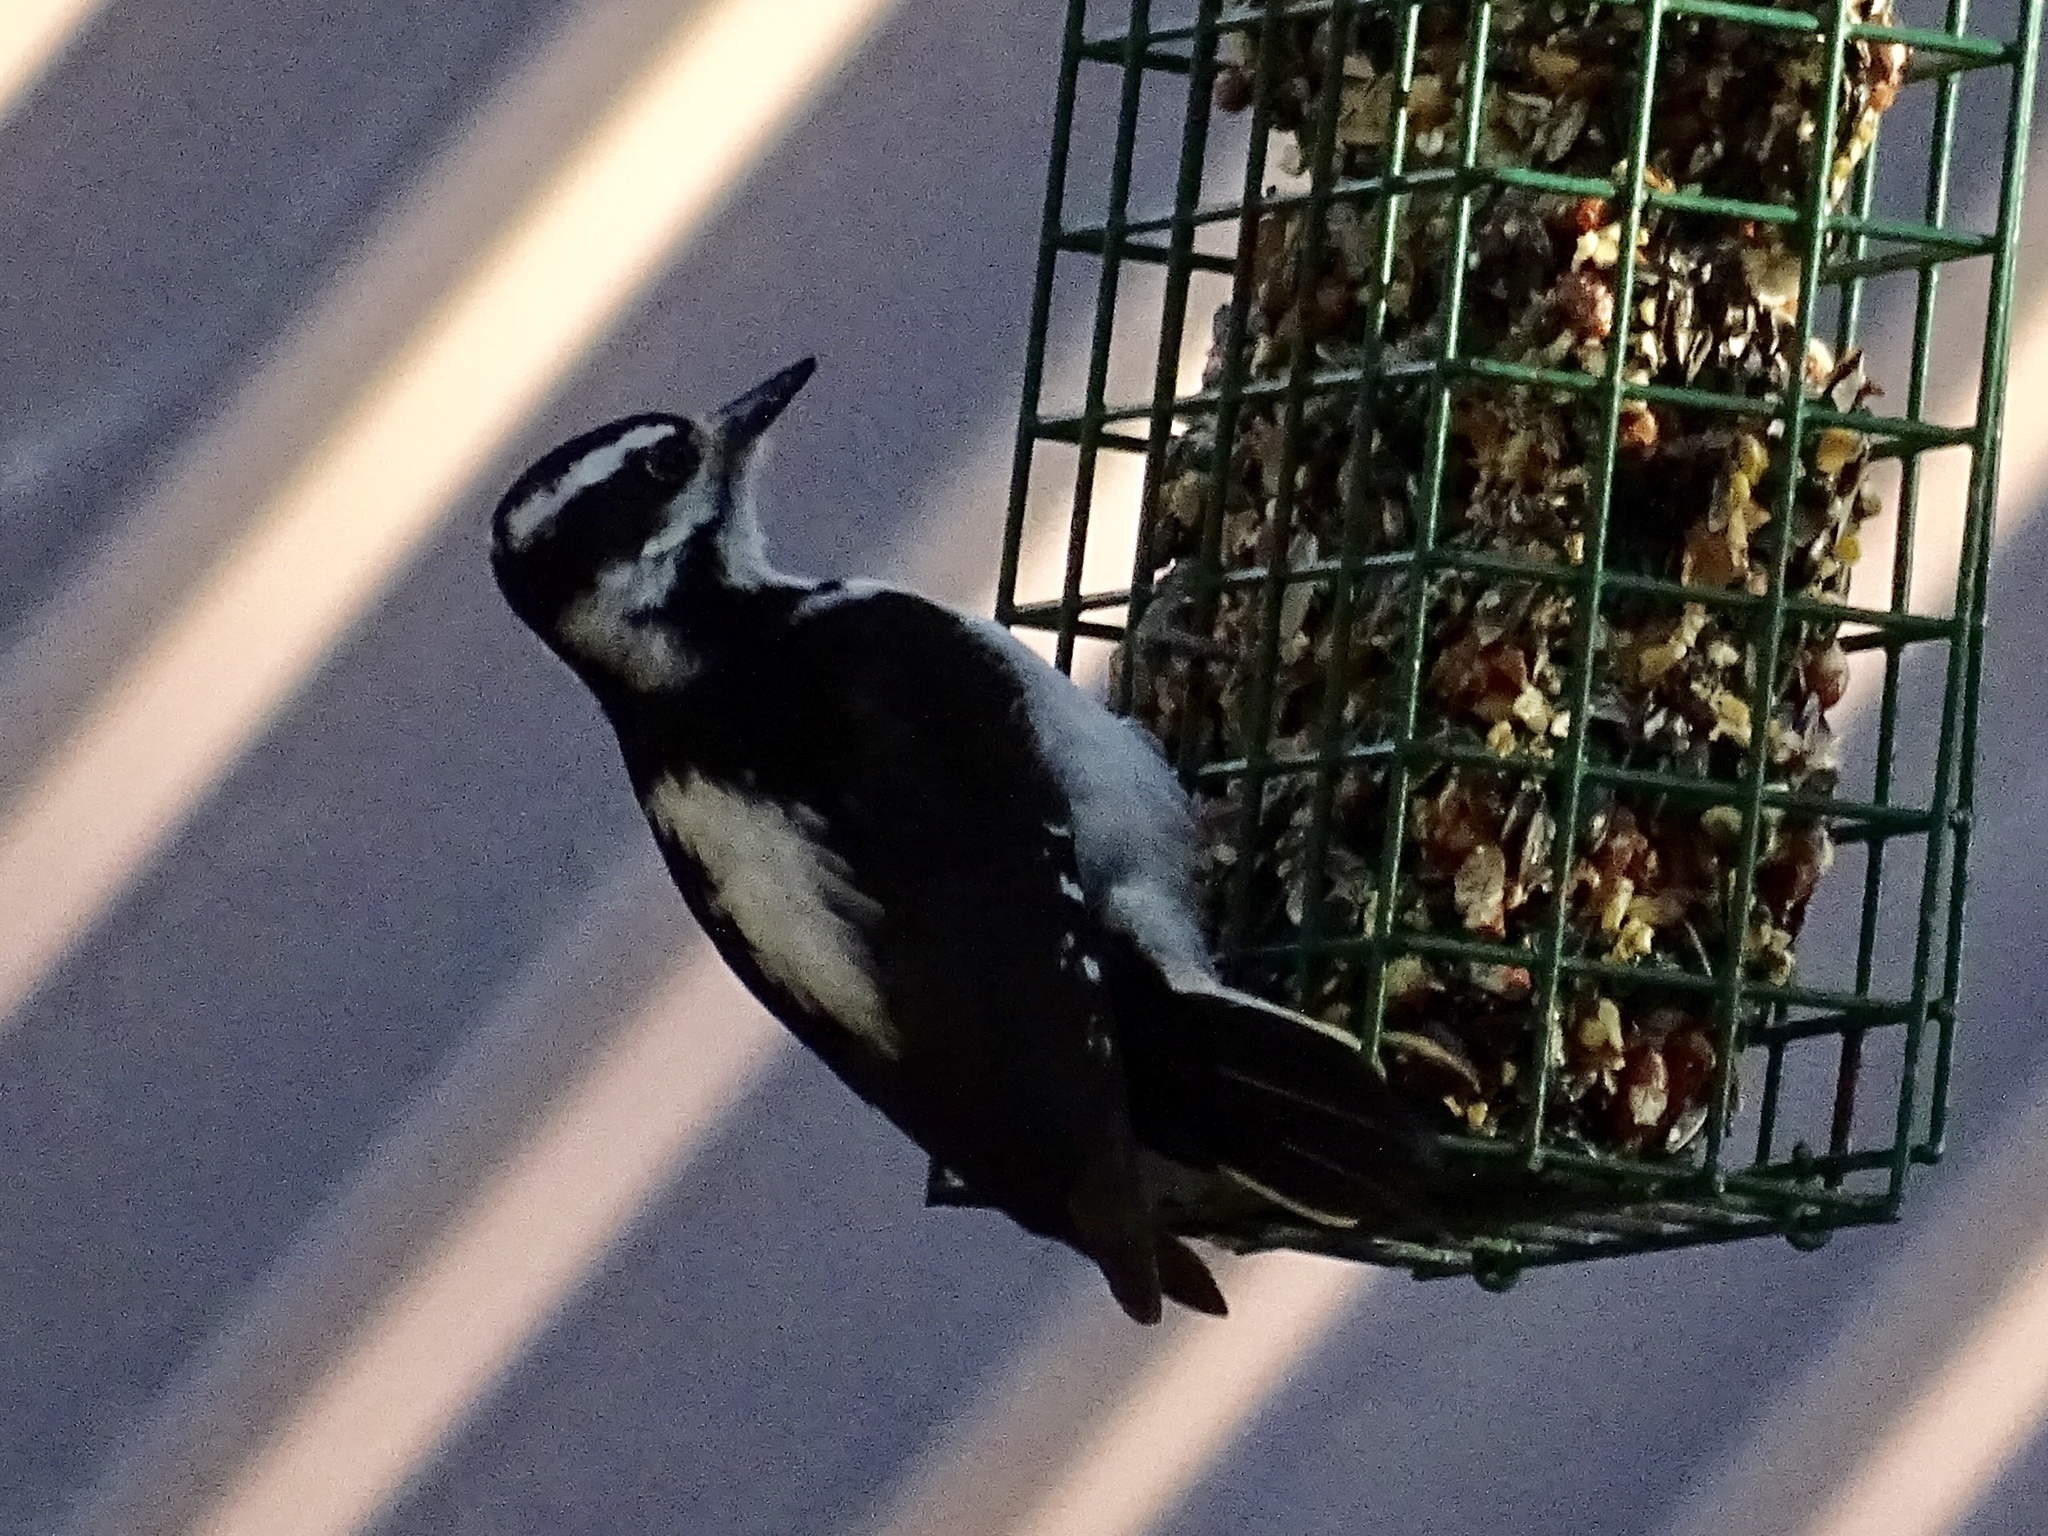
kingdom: Animalia
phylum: Chordata
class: Aves
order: Piciformes
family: Picidae
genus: Leuconotopicus
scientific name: Leuconotopicus villosus
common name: Hairy woodpecker
